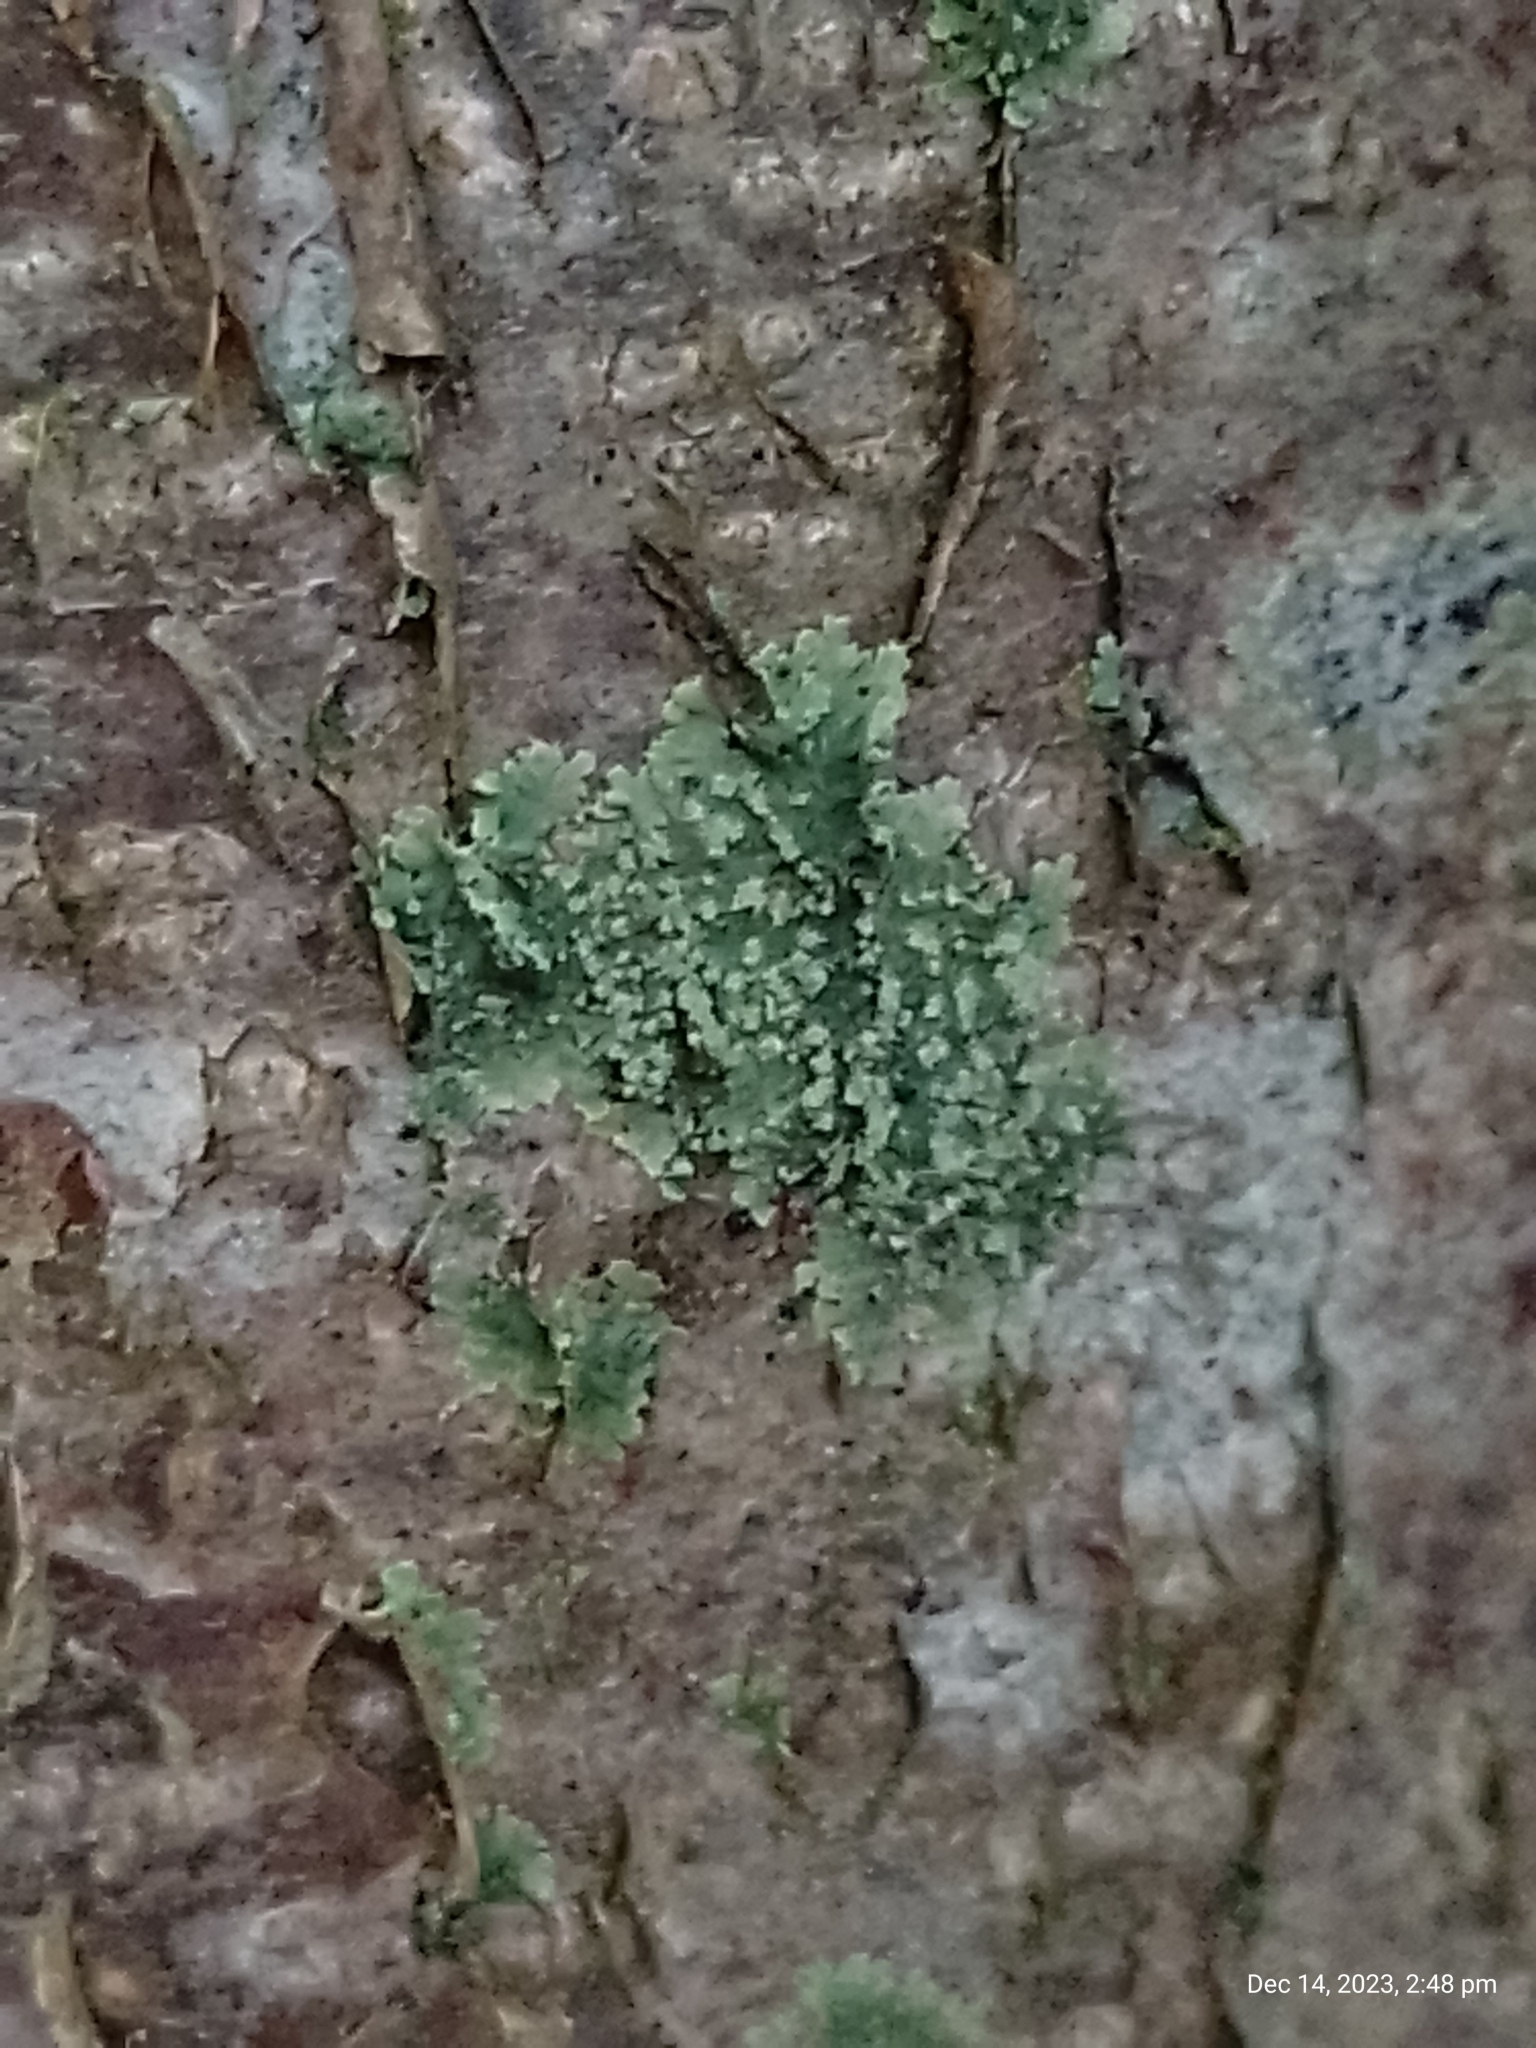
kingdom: Fungi
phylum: Ascomycota
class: Lecanoromycetes
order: Caliciales
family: Physciaceae
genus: Hyperphyscia
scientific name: Hyperphyscia adglutinata
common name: Grainy shadow-crust lichen
